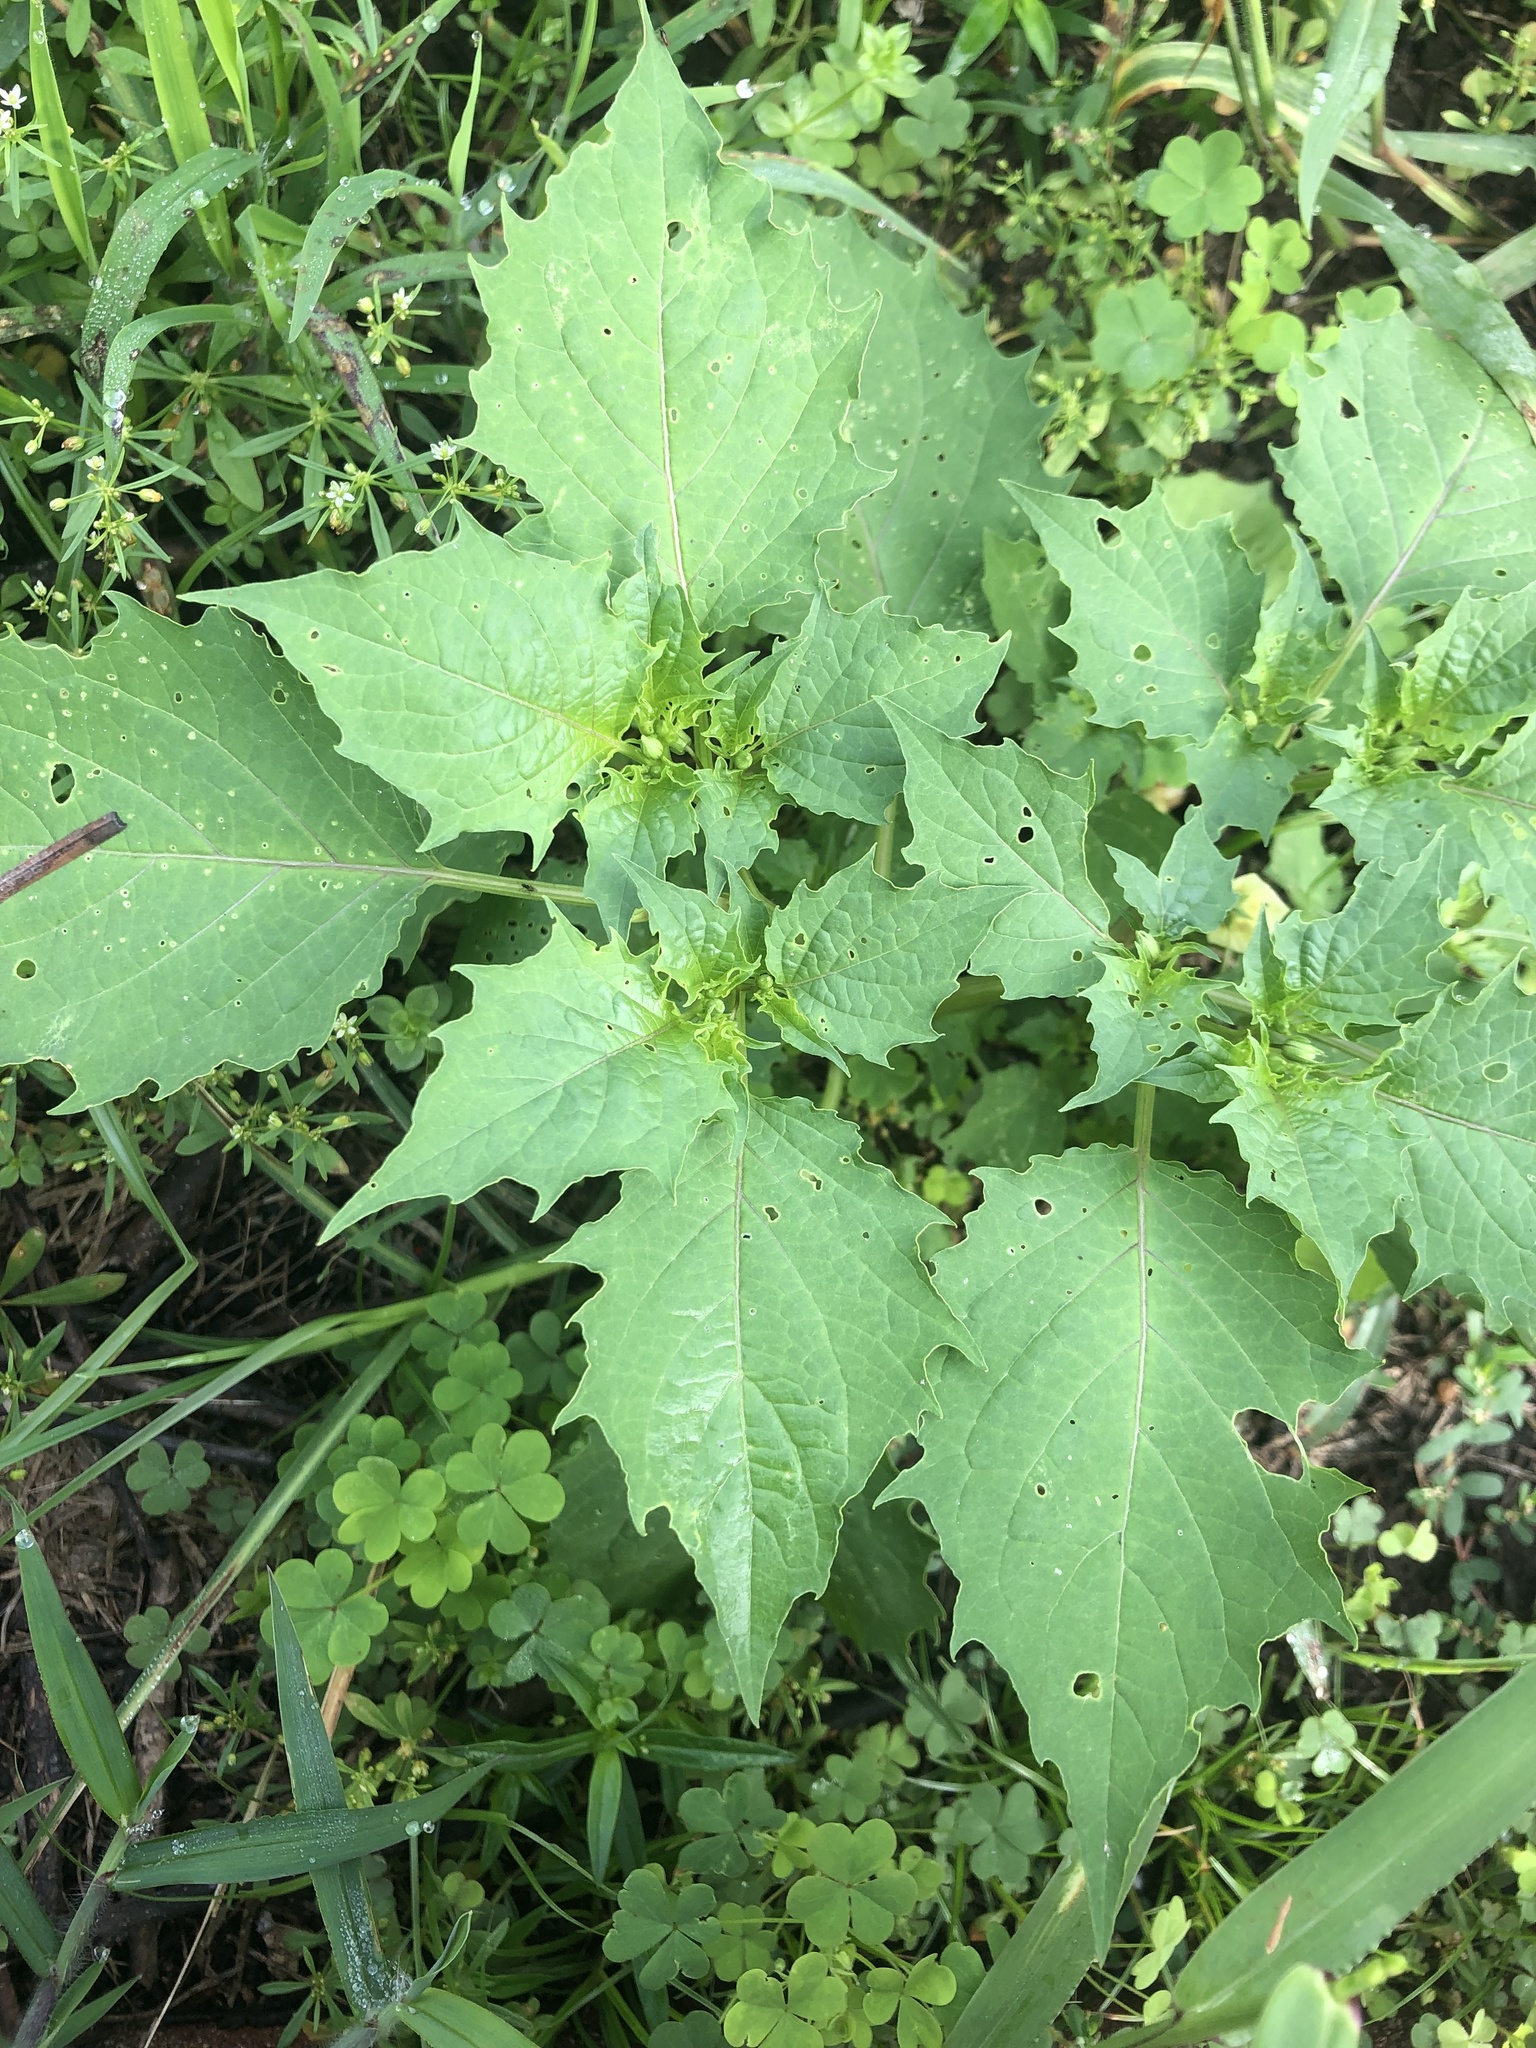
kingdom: Plantae
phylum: Tracheophyta
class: Magnoliopsida
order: Solanales
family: Solanaceae
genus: Physalis
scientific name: Physalis angulata
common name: Angular winter-cherry
